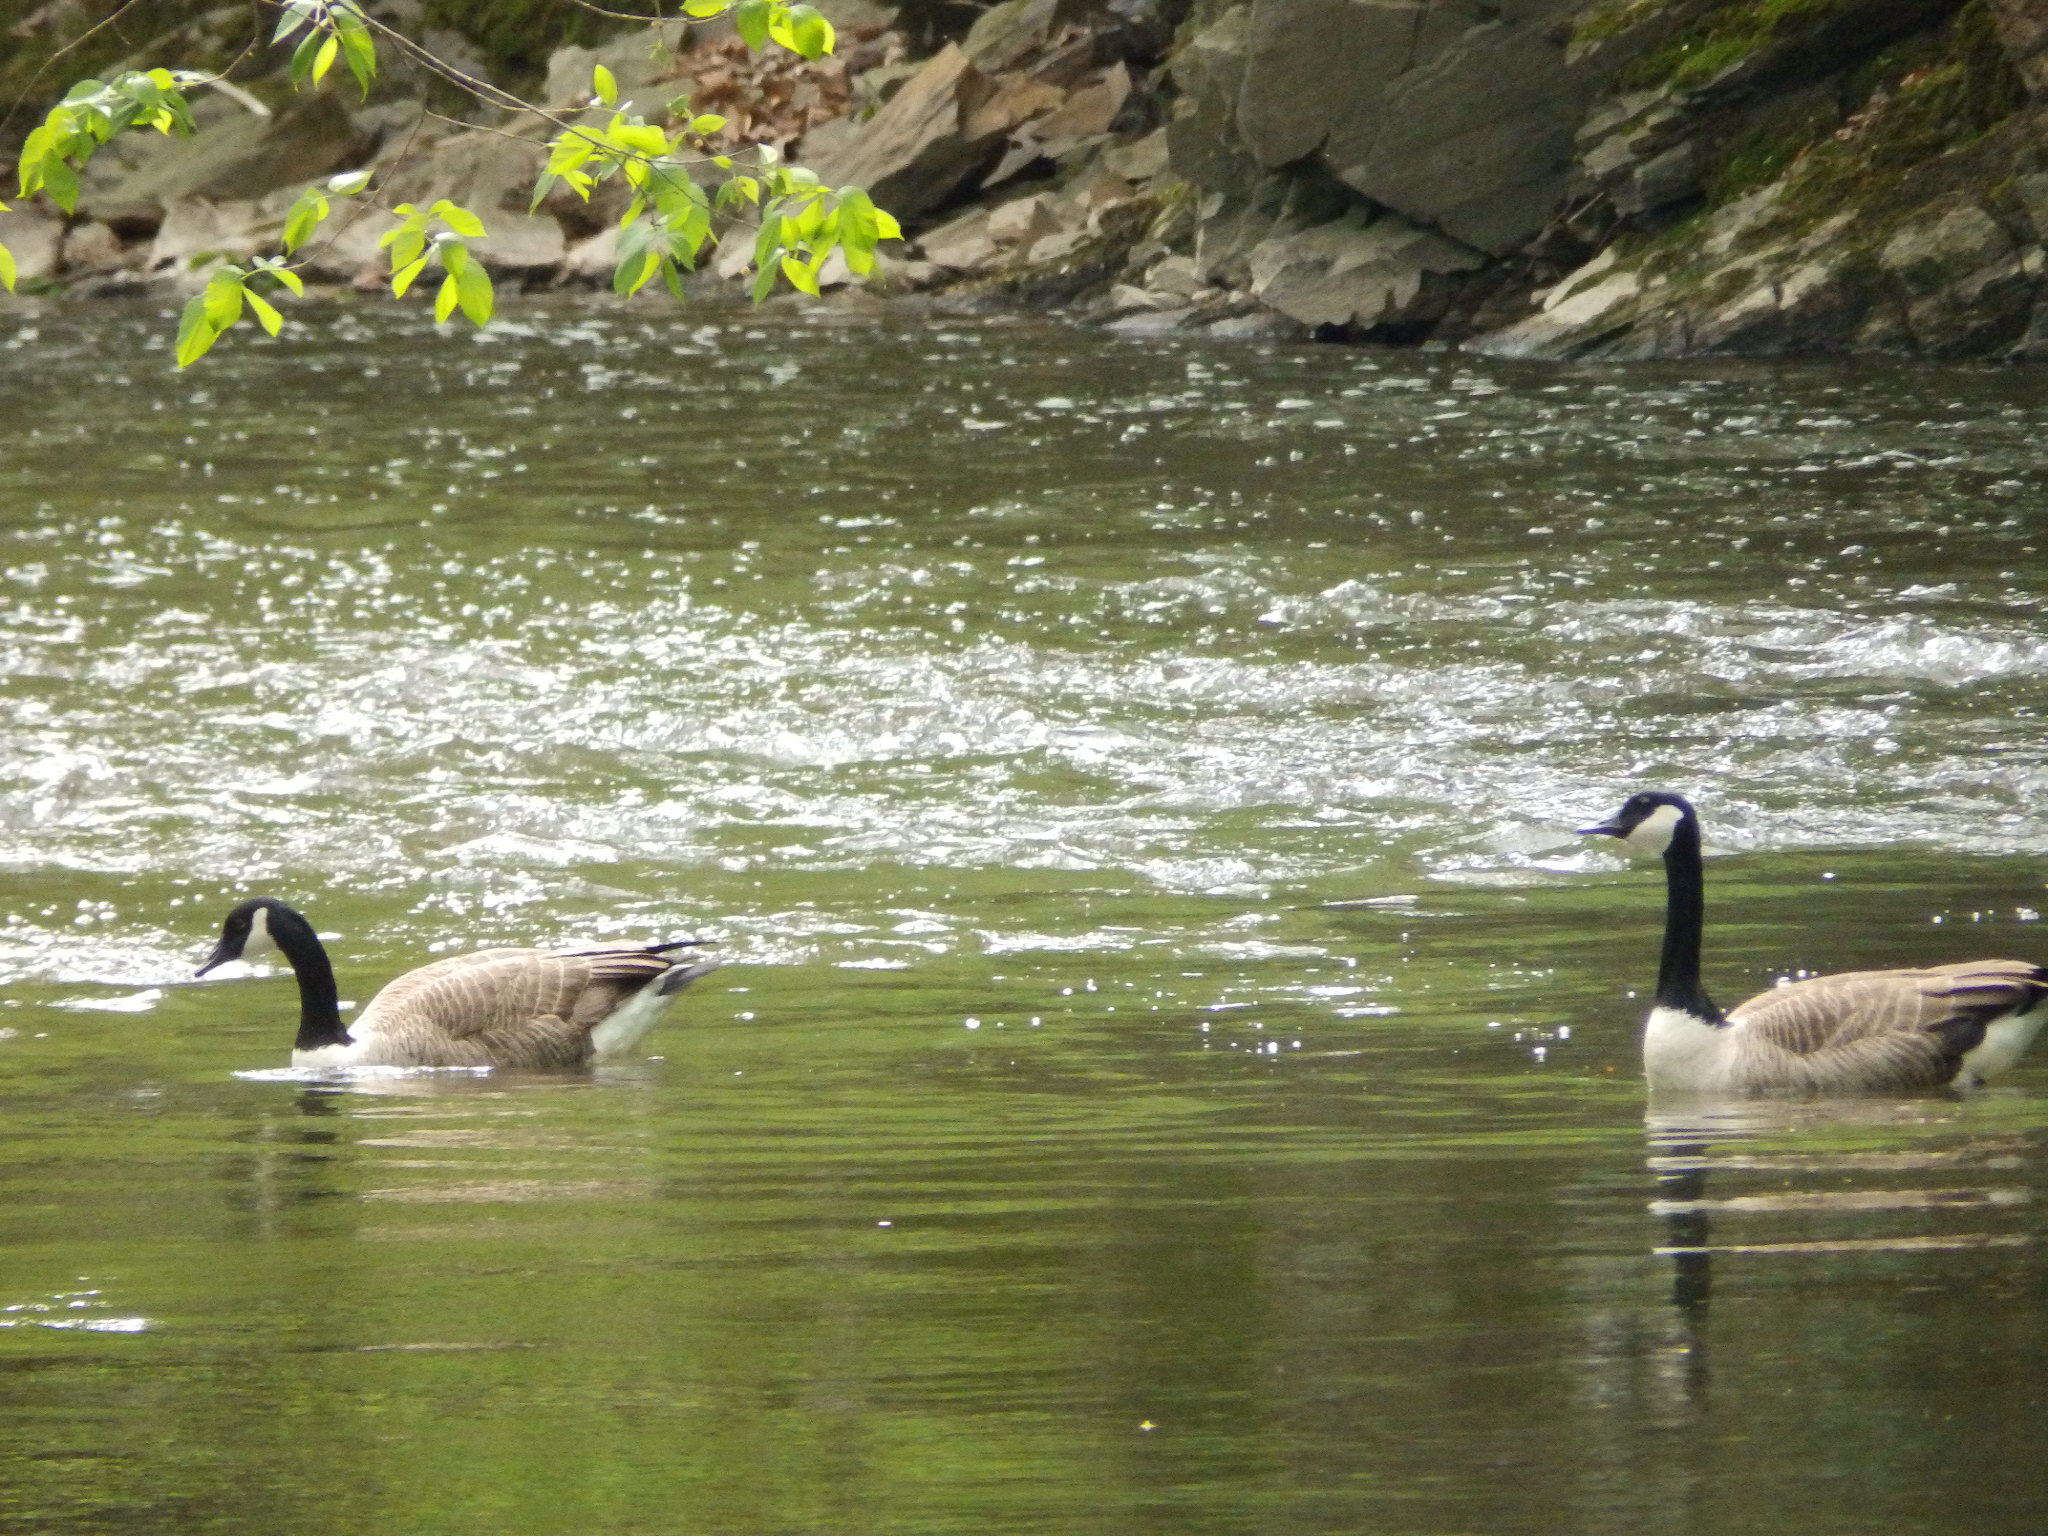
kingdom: Animalia
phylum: Chordata
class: Aves
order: Anseriformes
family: Anatidae
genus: Branta
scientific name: Branta canadensis
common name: Canada goose
